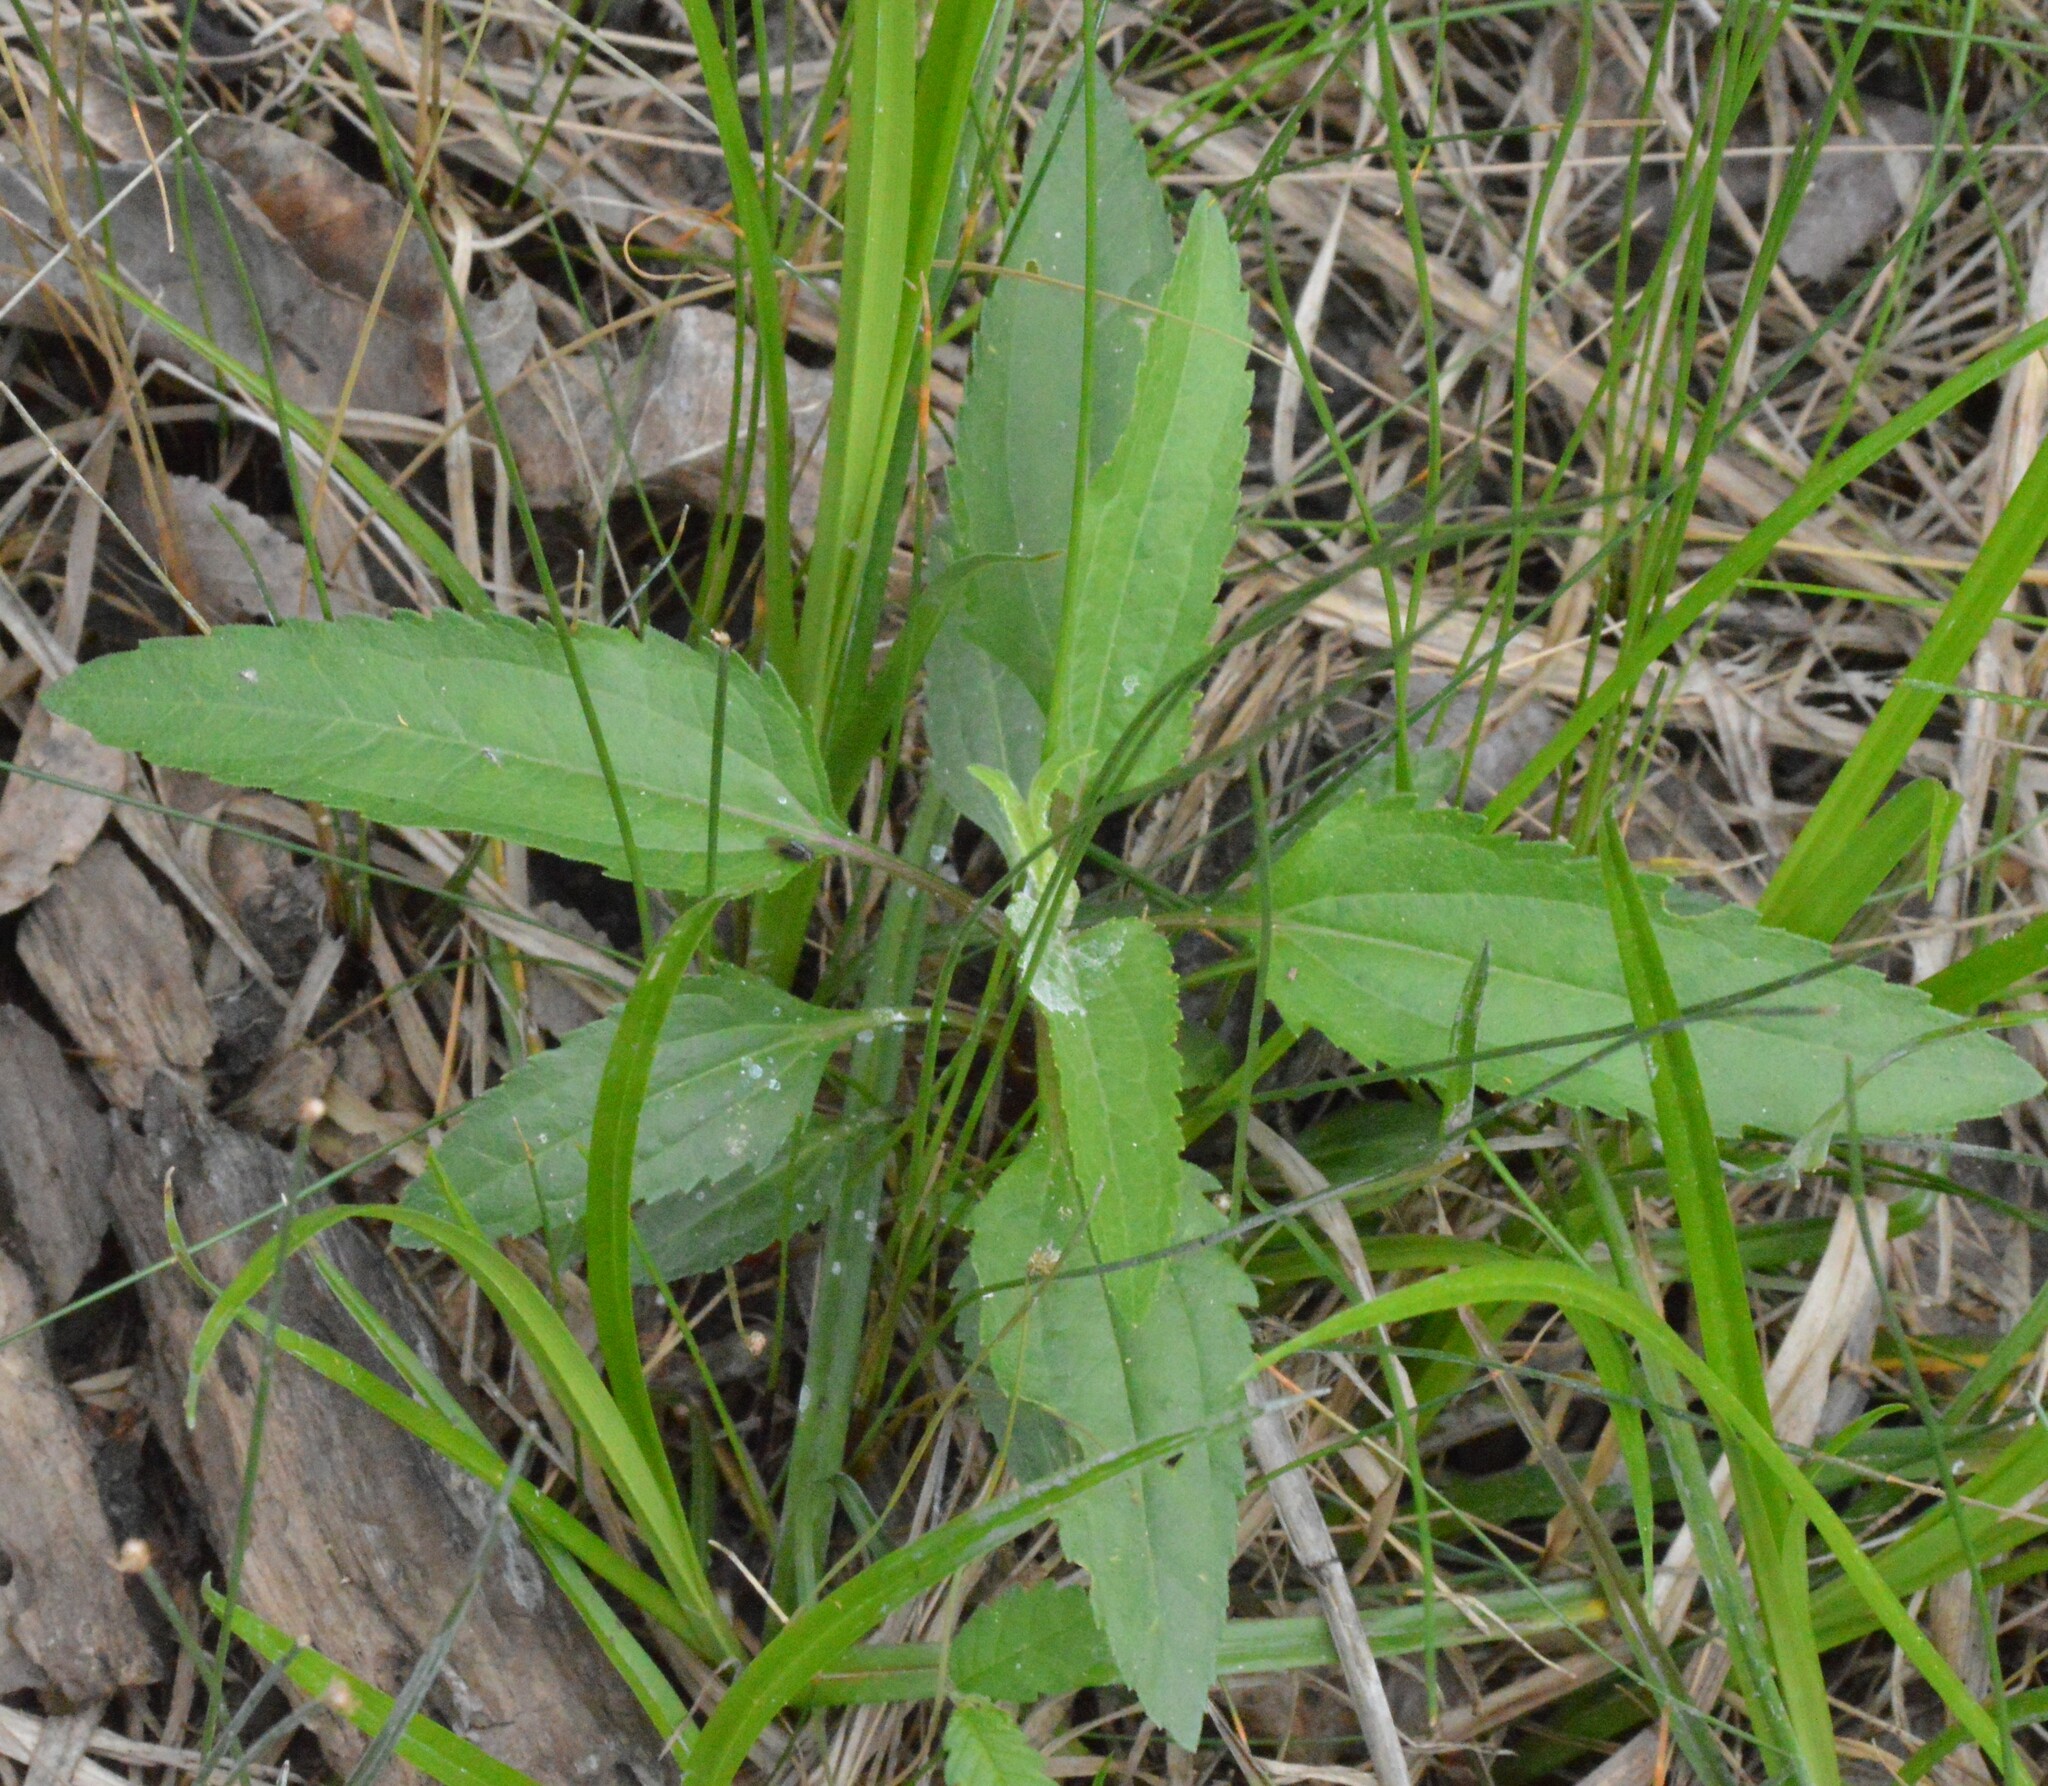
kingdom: Plantae
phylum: Tracheophyta
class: Magnoliopsida
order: Asterales
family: Asteraceae
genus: Eupatorium
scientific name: Eupatorium serotinum
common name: Late boneset
